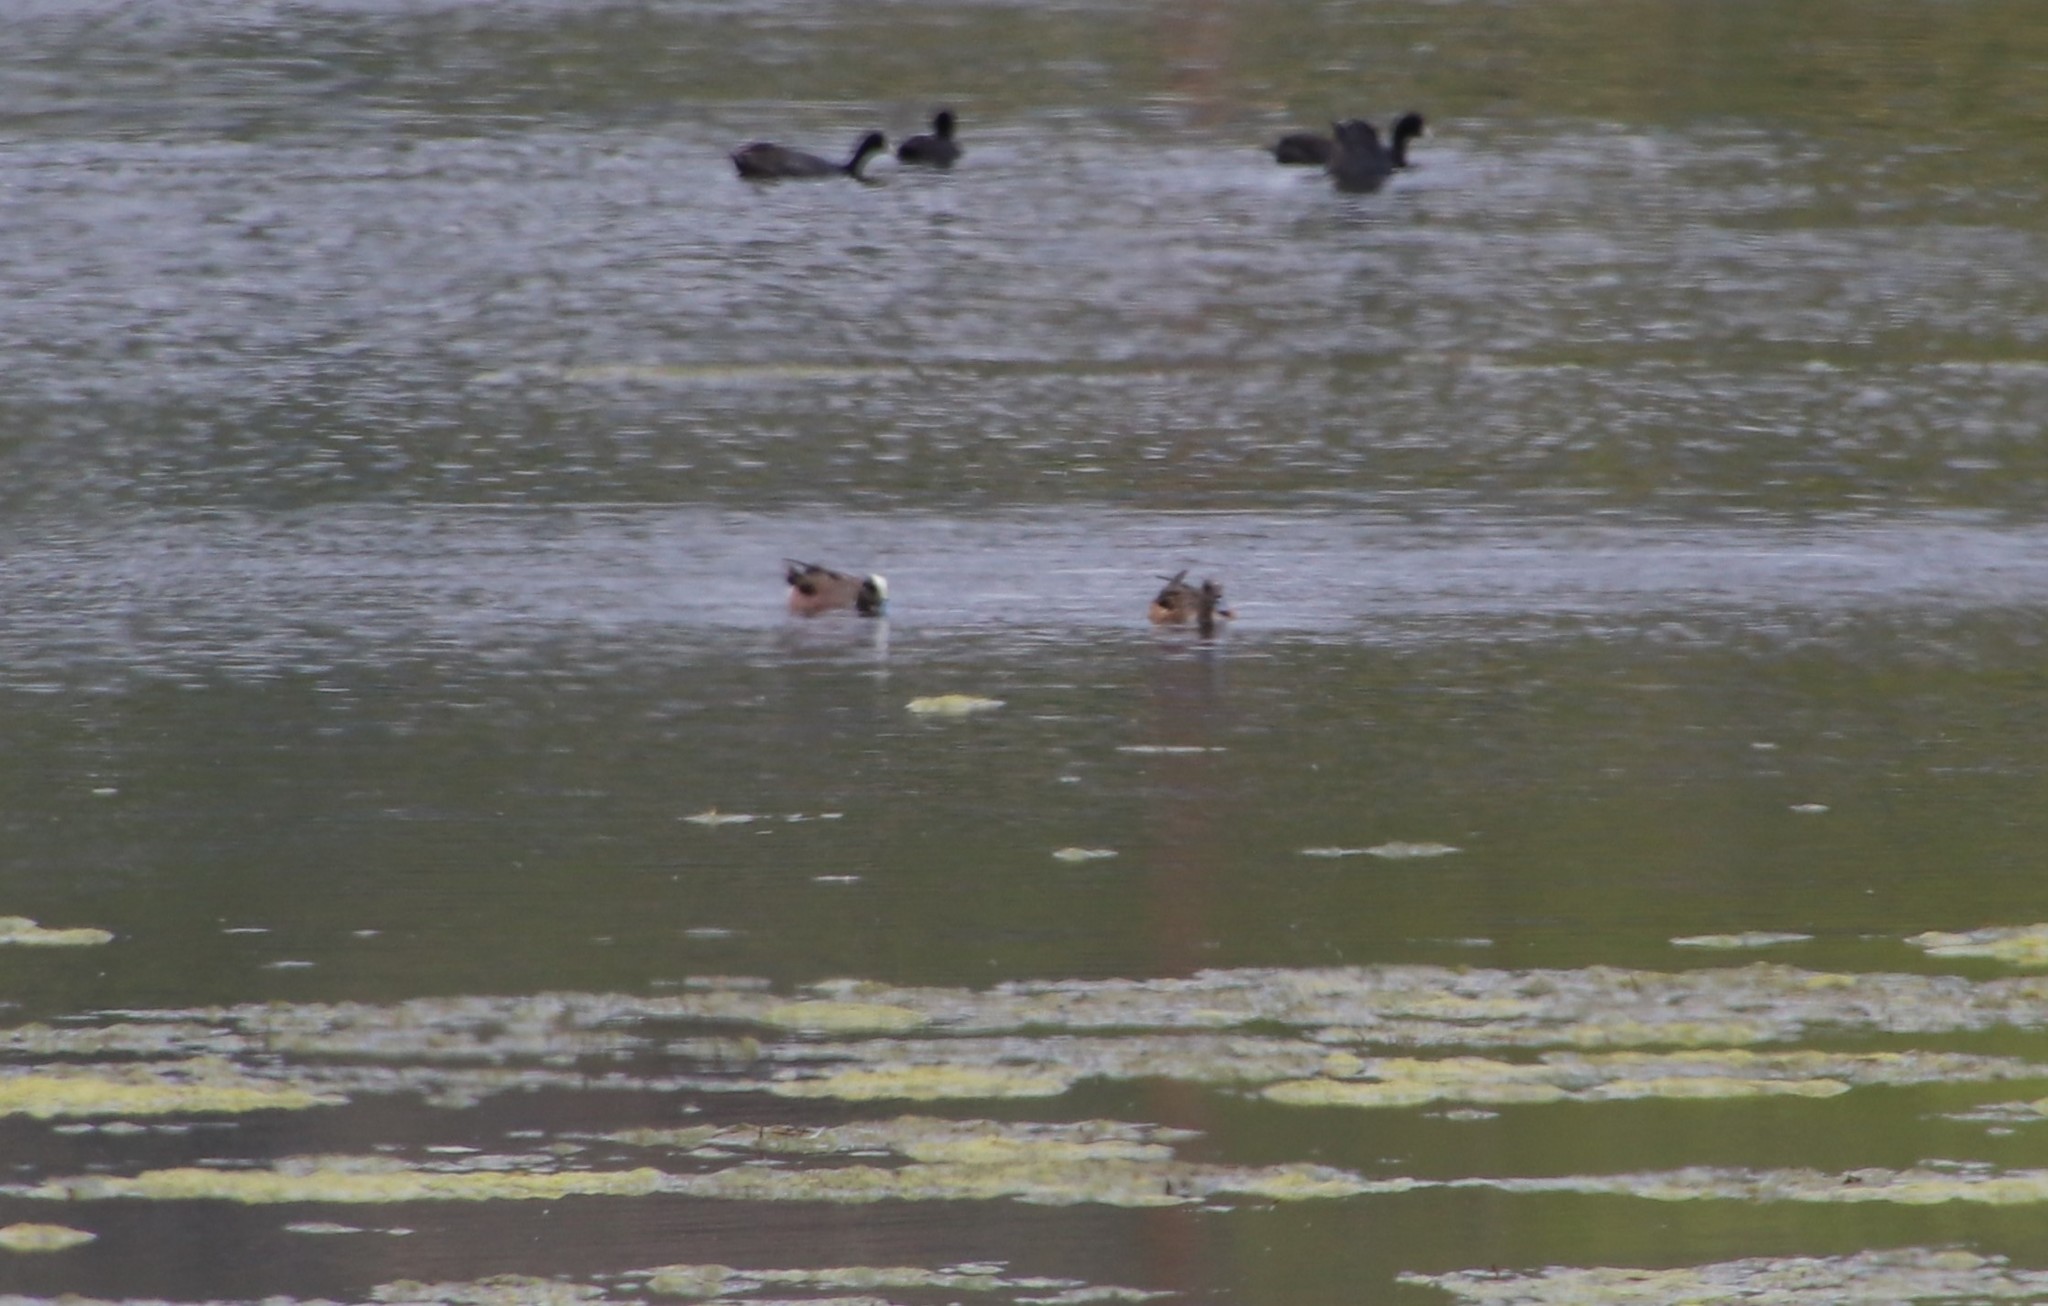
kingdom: Animalia
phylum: Chordata
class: Aves
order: Anseriformes
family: Anatidae
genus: Mareca
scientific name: Mareca americana
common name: American wigeon
